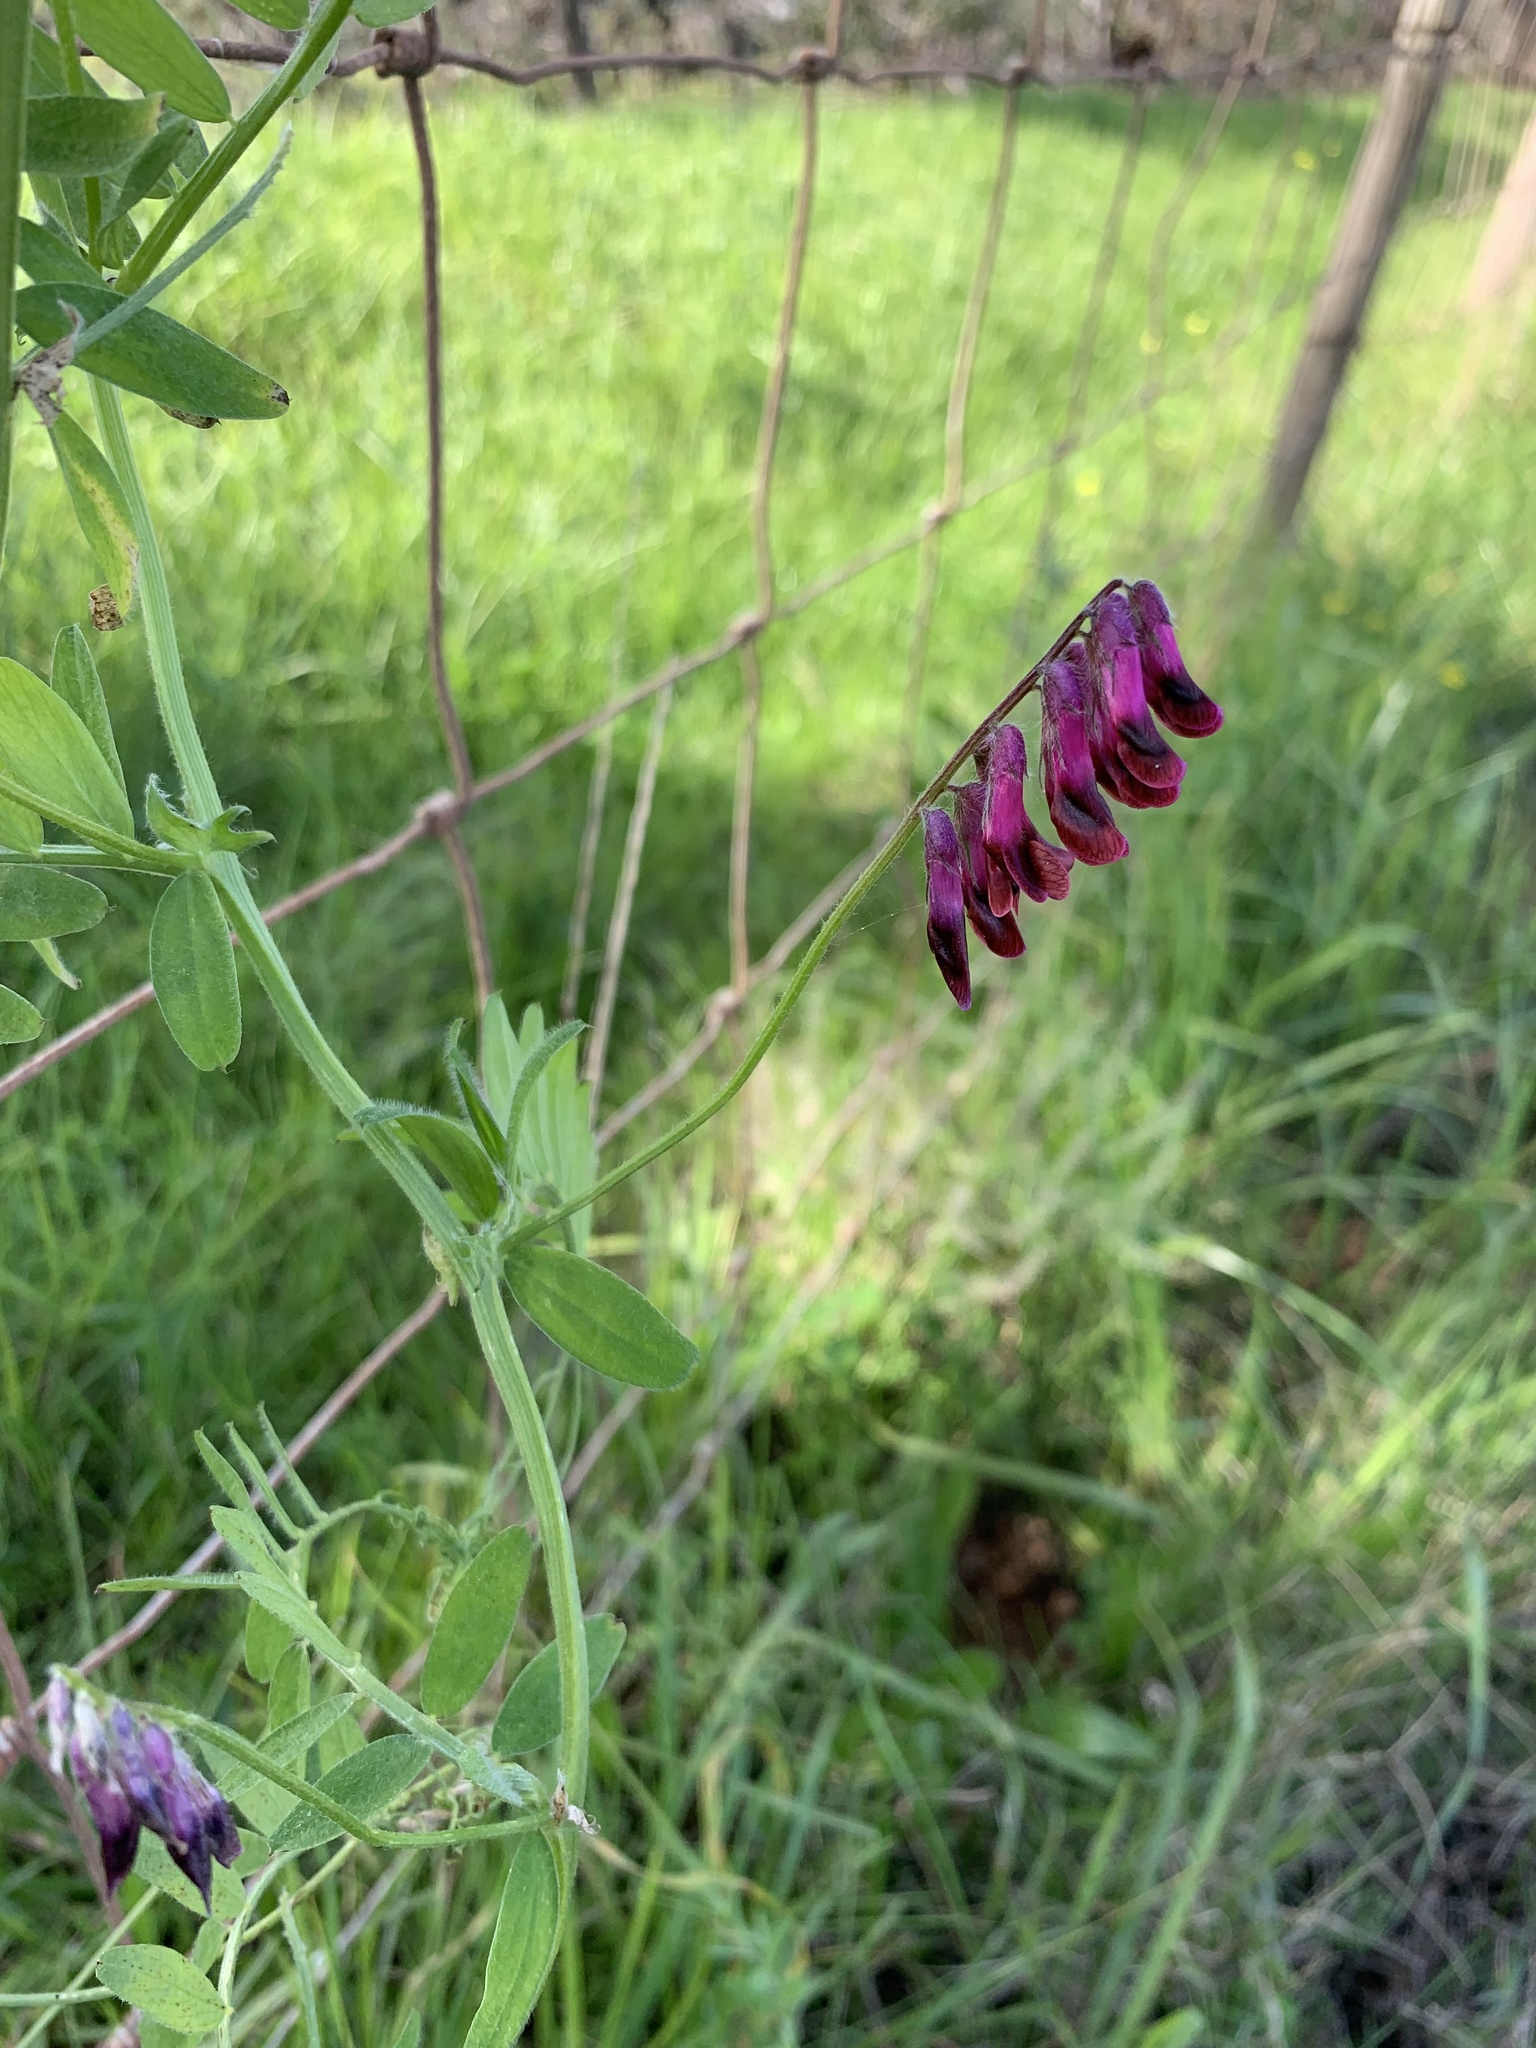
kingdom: Plantae
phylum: Tracheophyta
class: Magnoliopsida
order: Fabales
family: Fabaceae
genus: Vicia
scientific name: Vicia benghalensis
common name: Purple vetch
